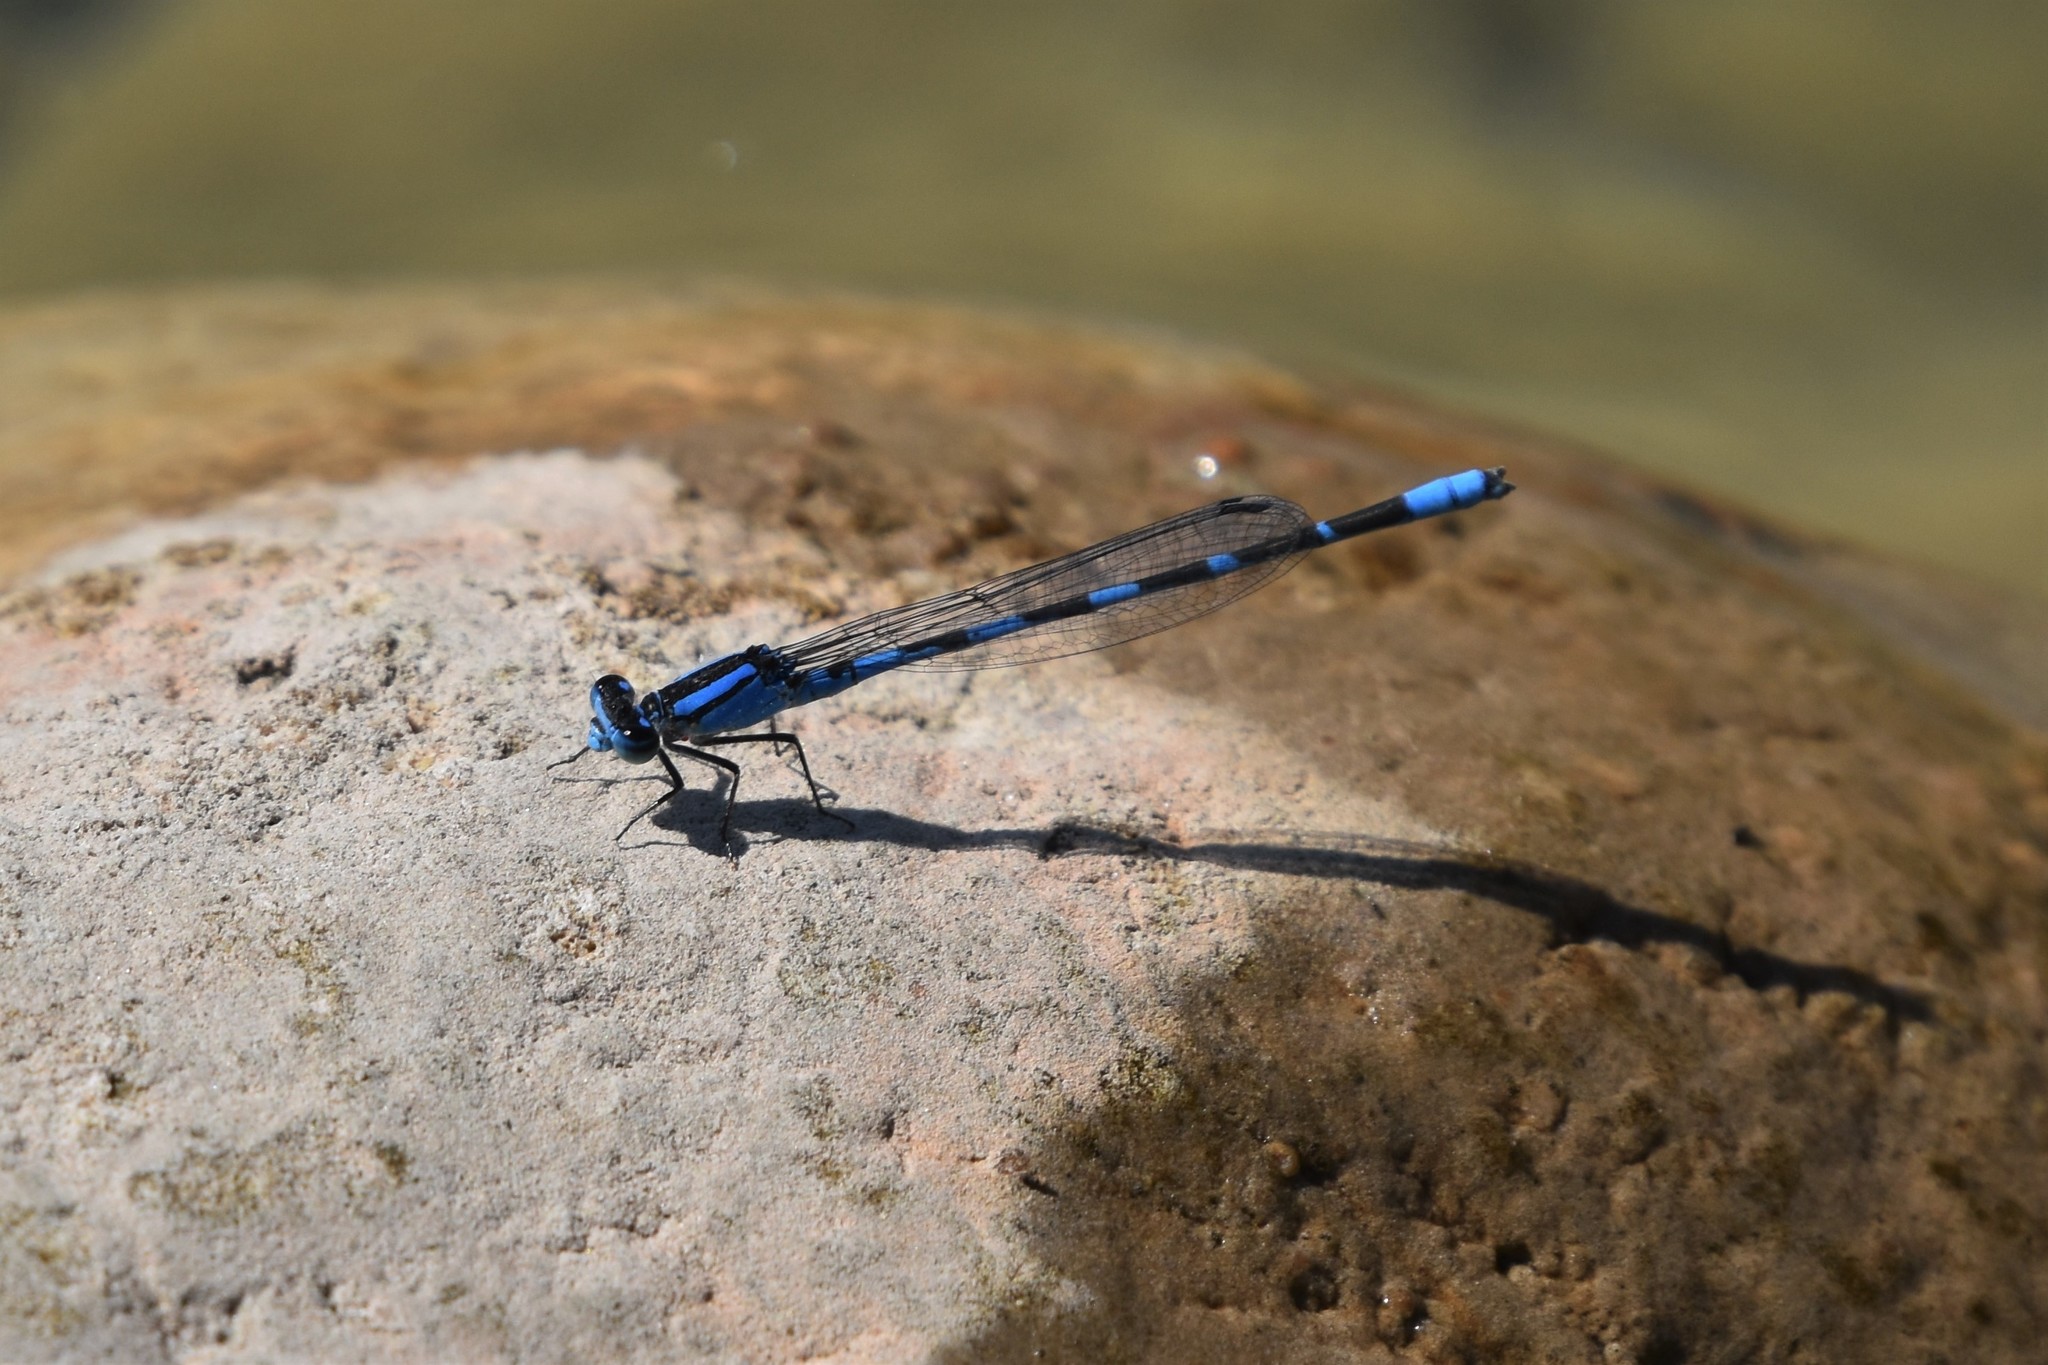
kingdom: Animalia
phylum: Arthropoda
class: Insecta
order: Odonata
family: Coenagrionidae
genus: Enallagma
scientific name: Enallagma carunculatum
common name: Tule bluet
